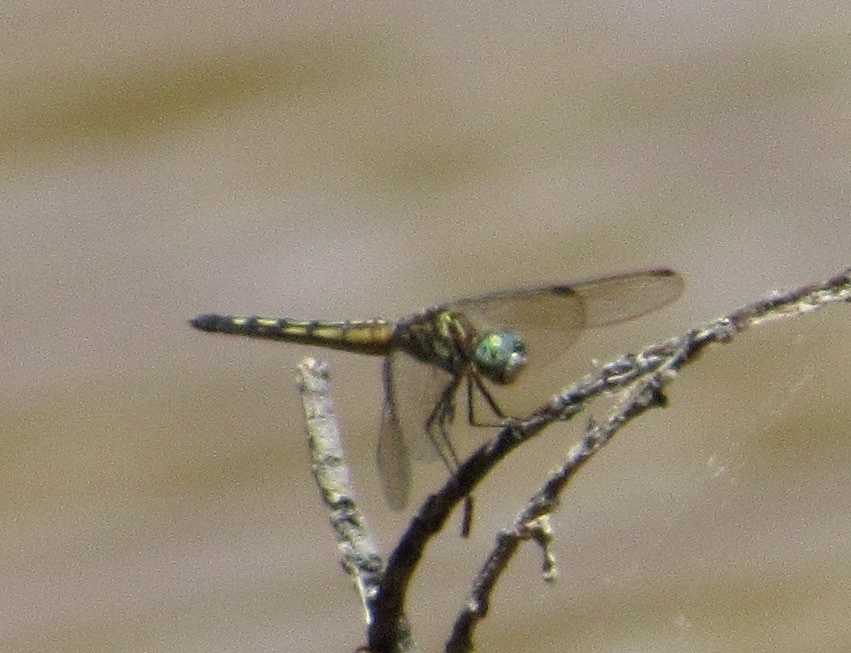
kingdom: Animalia
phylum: Arthropoda
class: Insecta
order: Odonata
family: Libellulidae
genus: Pachydiplax
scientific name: Pachydiplax longipennis
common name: Blue dasher
